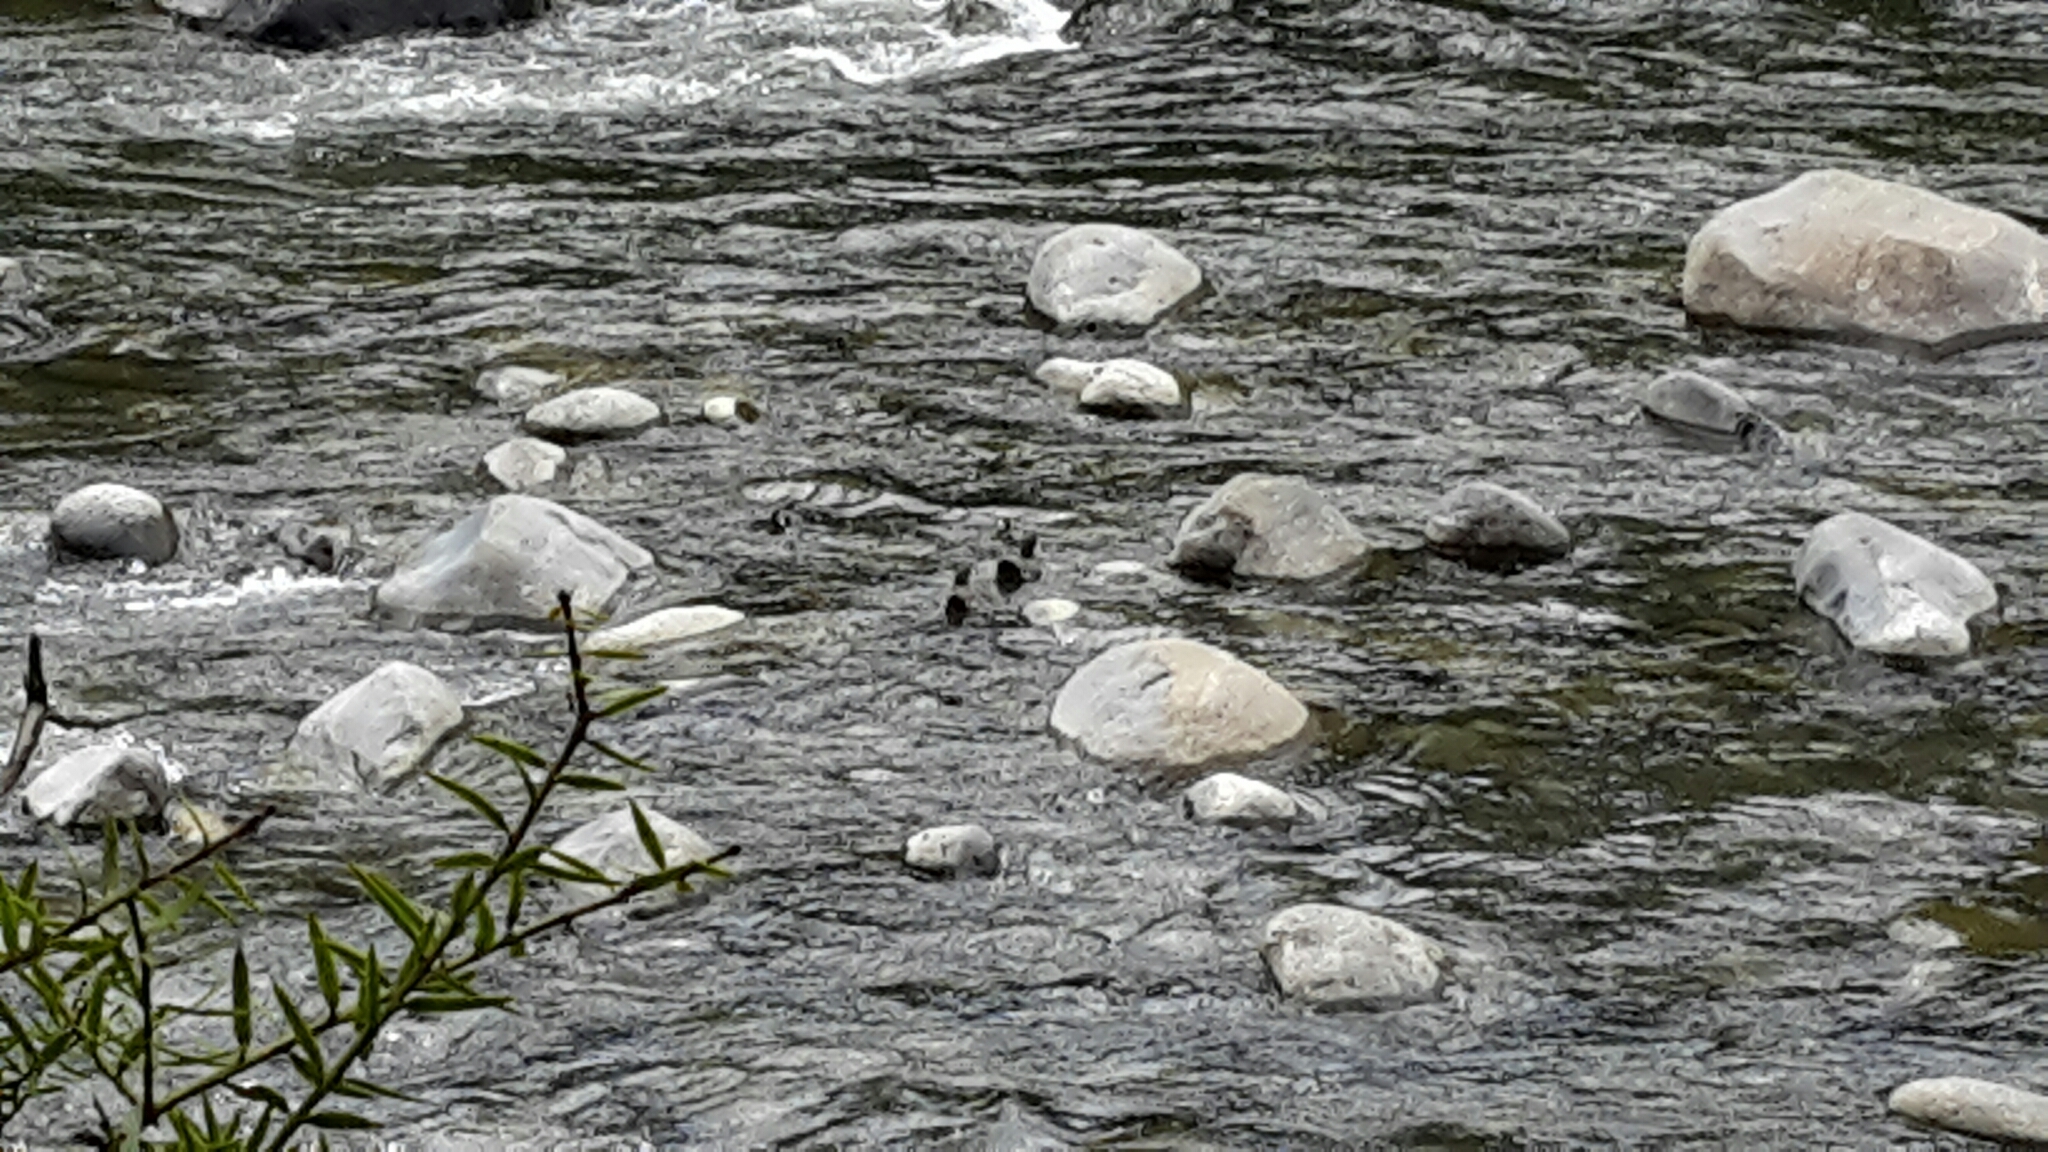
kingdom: Animalia
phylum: Chordata
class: Aves
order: Anseriformes
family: Anatidae
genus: Hymenolaimus
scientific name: Hymenolaimus malacorhynchos
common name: Blue duck
